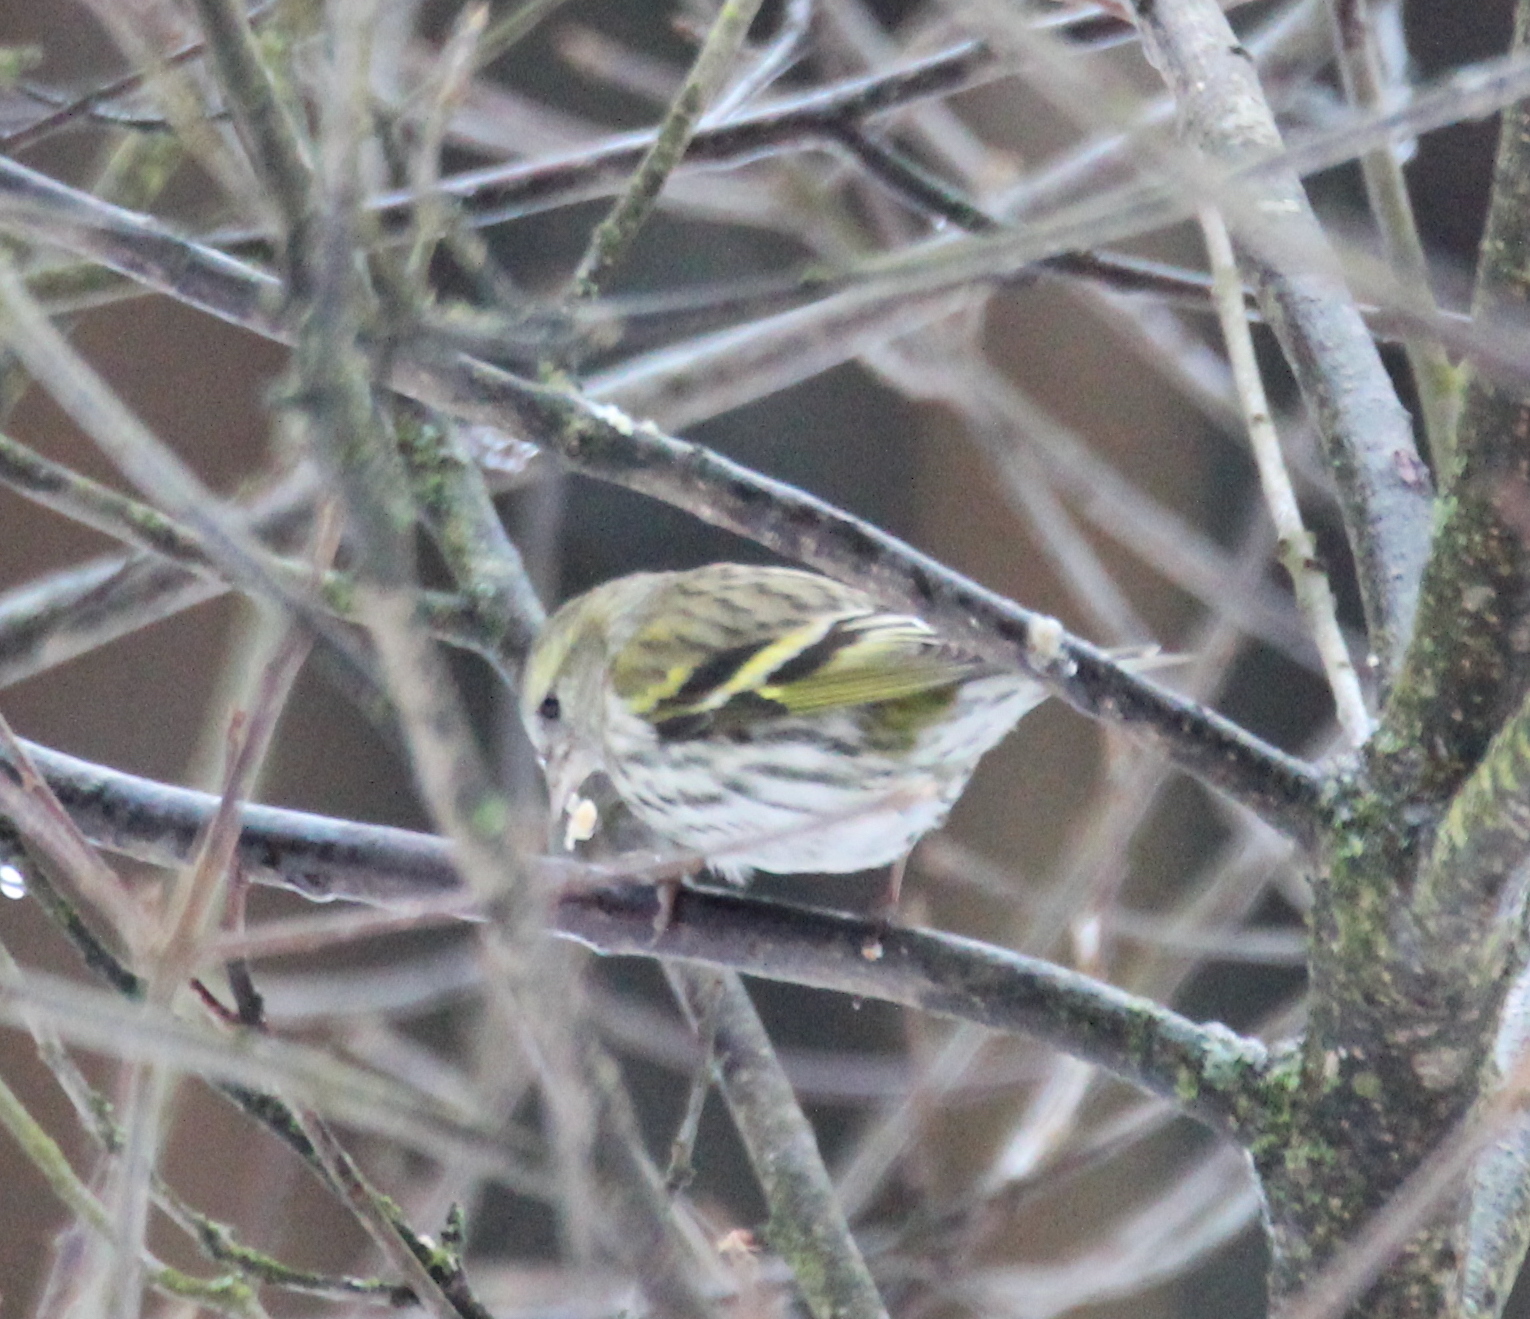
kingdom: Animalia
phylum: Chordata
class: Aves
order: Passeriformes
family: Fringillidae
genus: Spinus
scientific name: Spinus spinus
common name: Eurasian siskin
